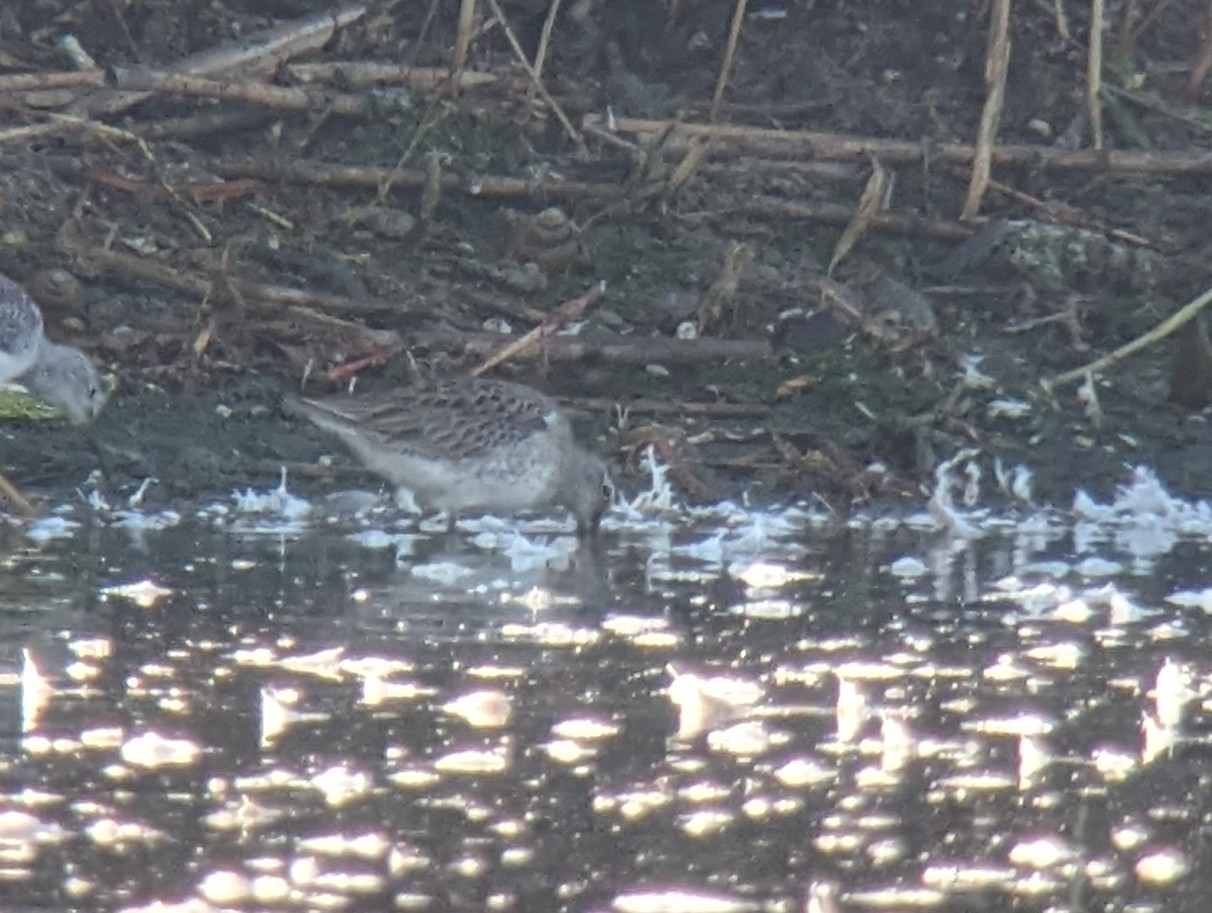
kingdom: Animalia
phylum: Chordata
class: Aves
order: Charadriiformes
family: Scolopacidae
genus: Limnodromus
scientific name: Limnodromus scolopaceus
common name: Long-billed dowitcher
